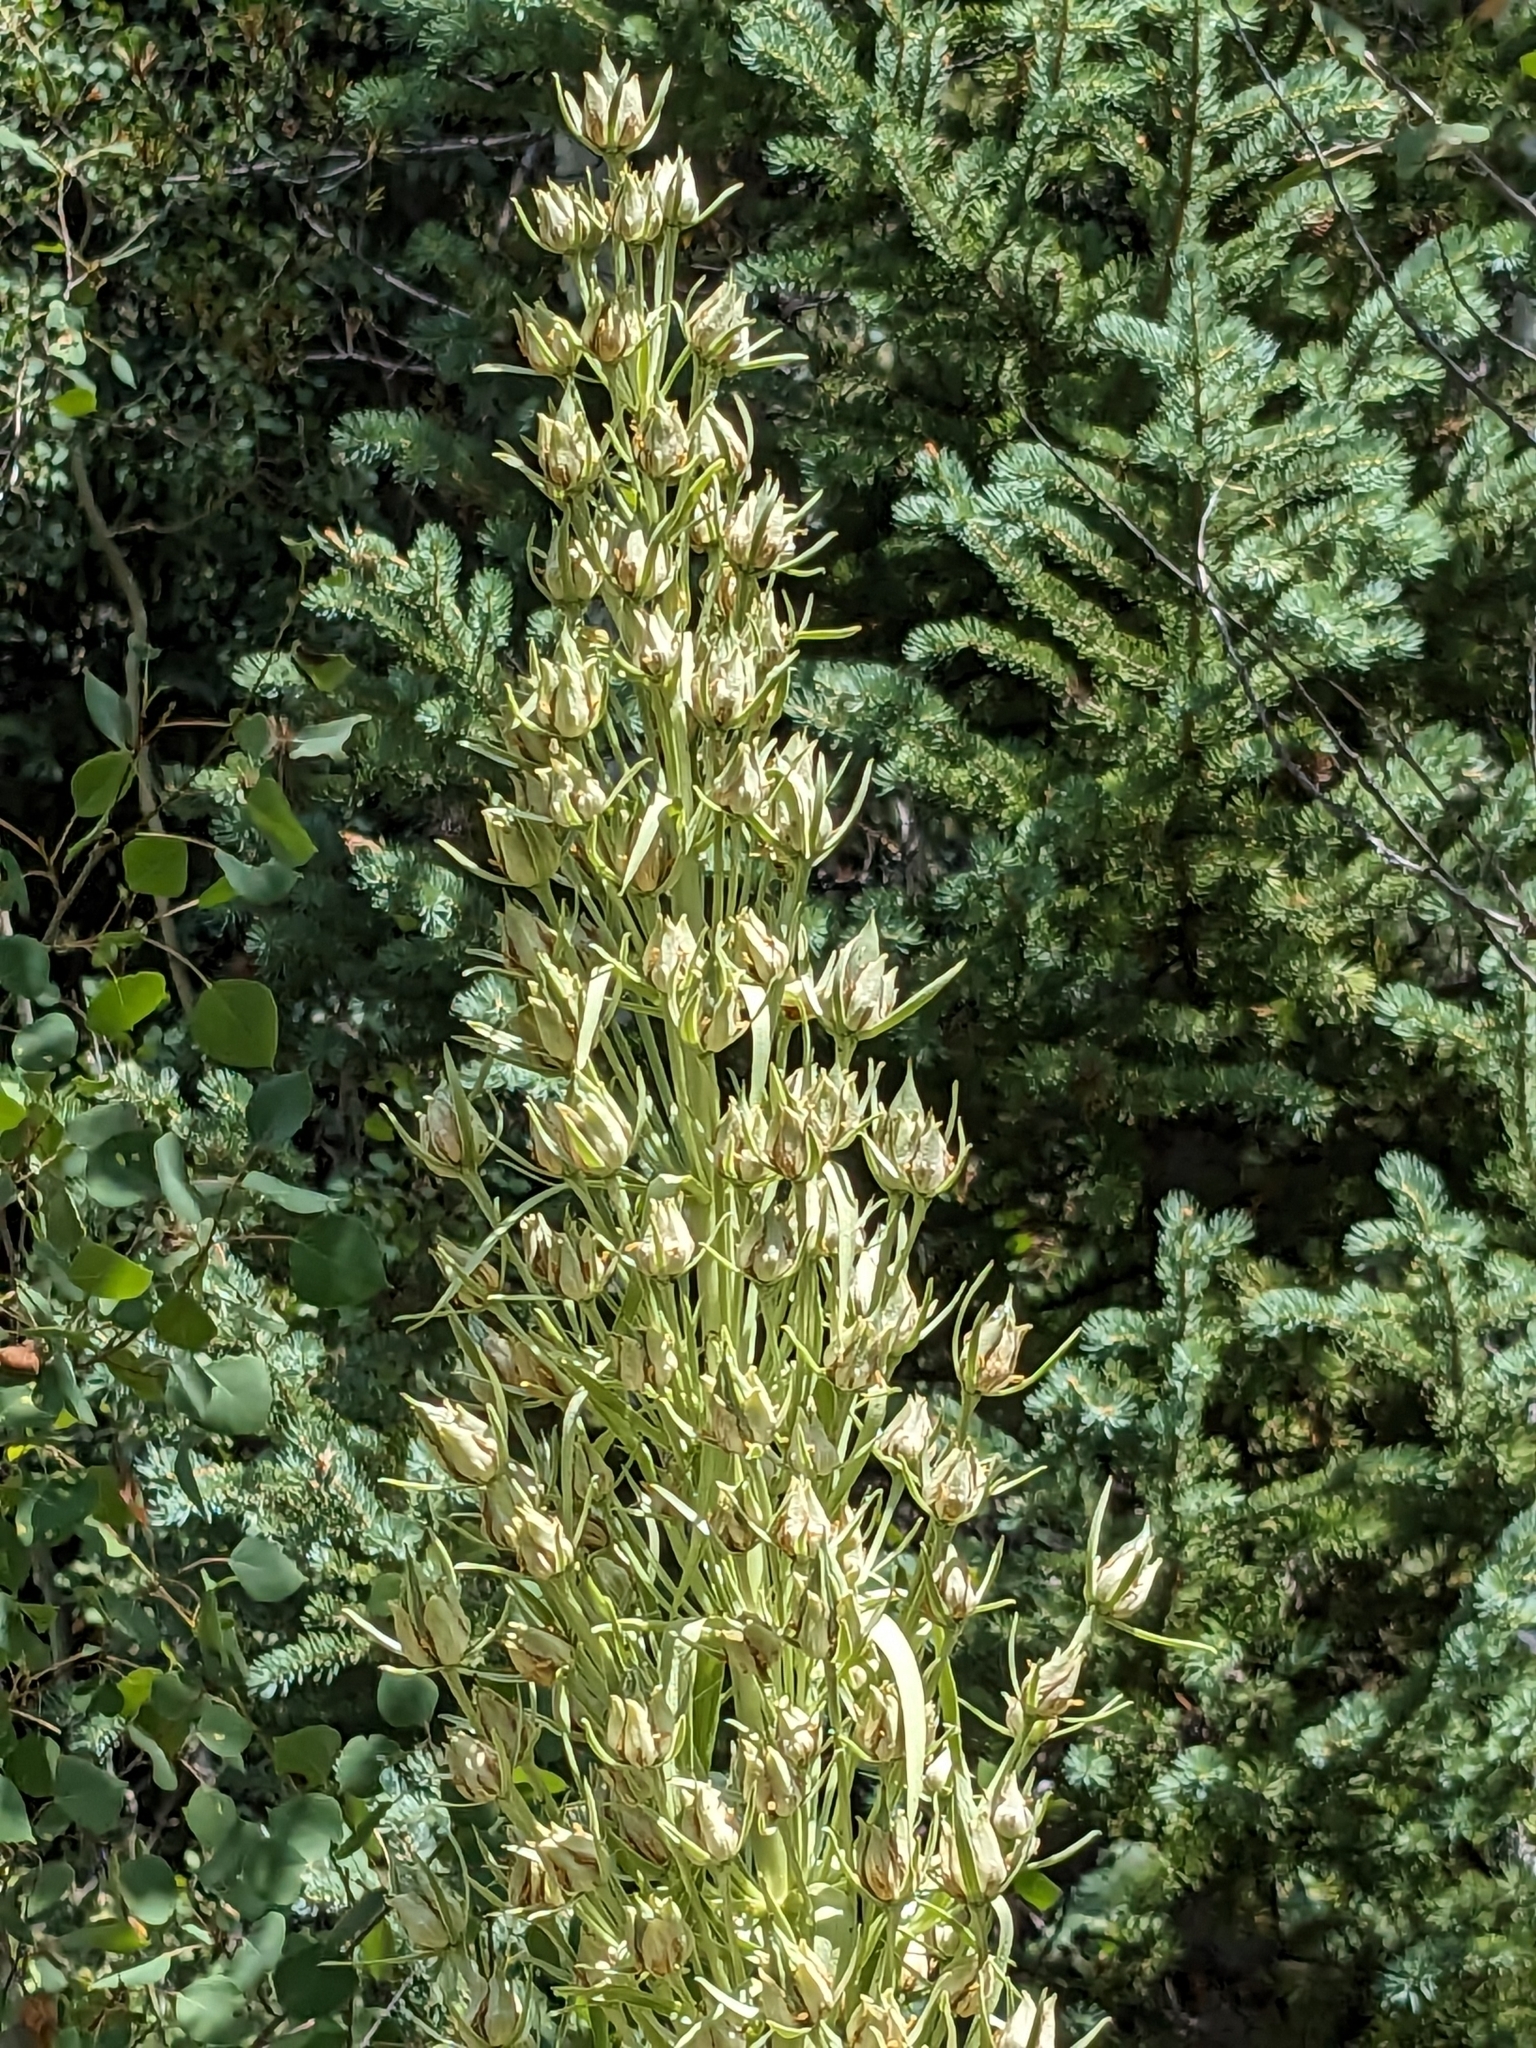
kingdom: Plantae
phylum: Tracheophyta
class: Magnoliopsida
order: Gentianales
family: Gentianaceae
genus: Frasera
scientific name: Frasera speciosa
